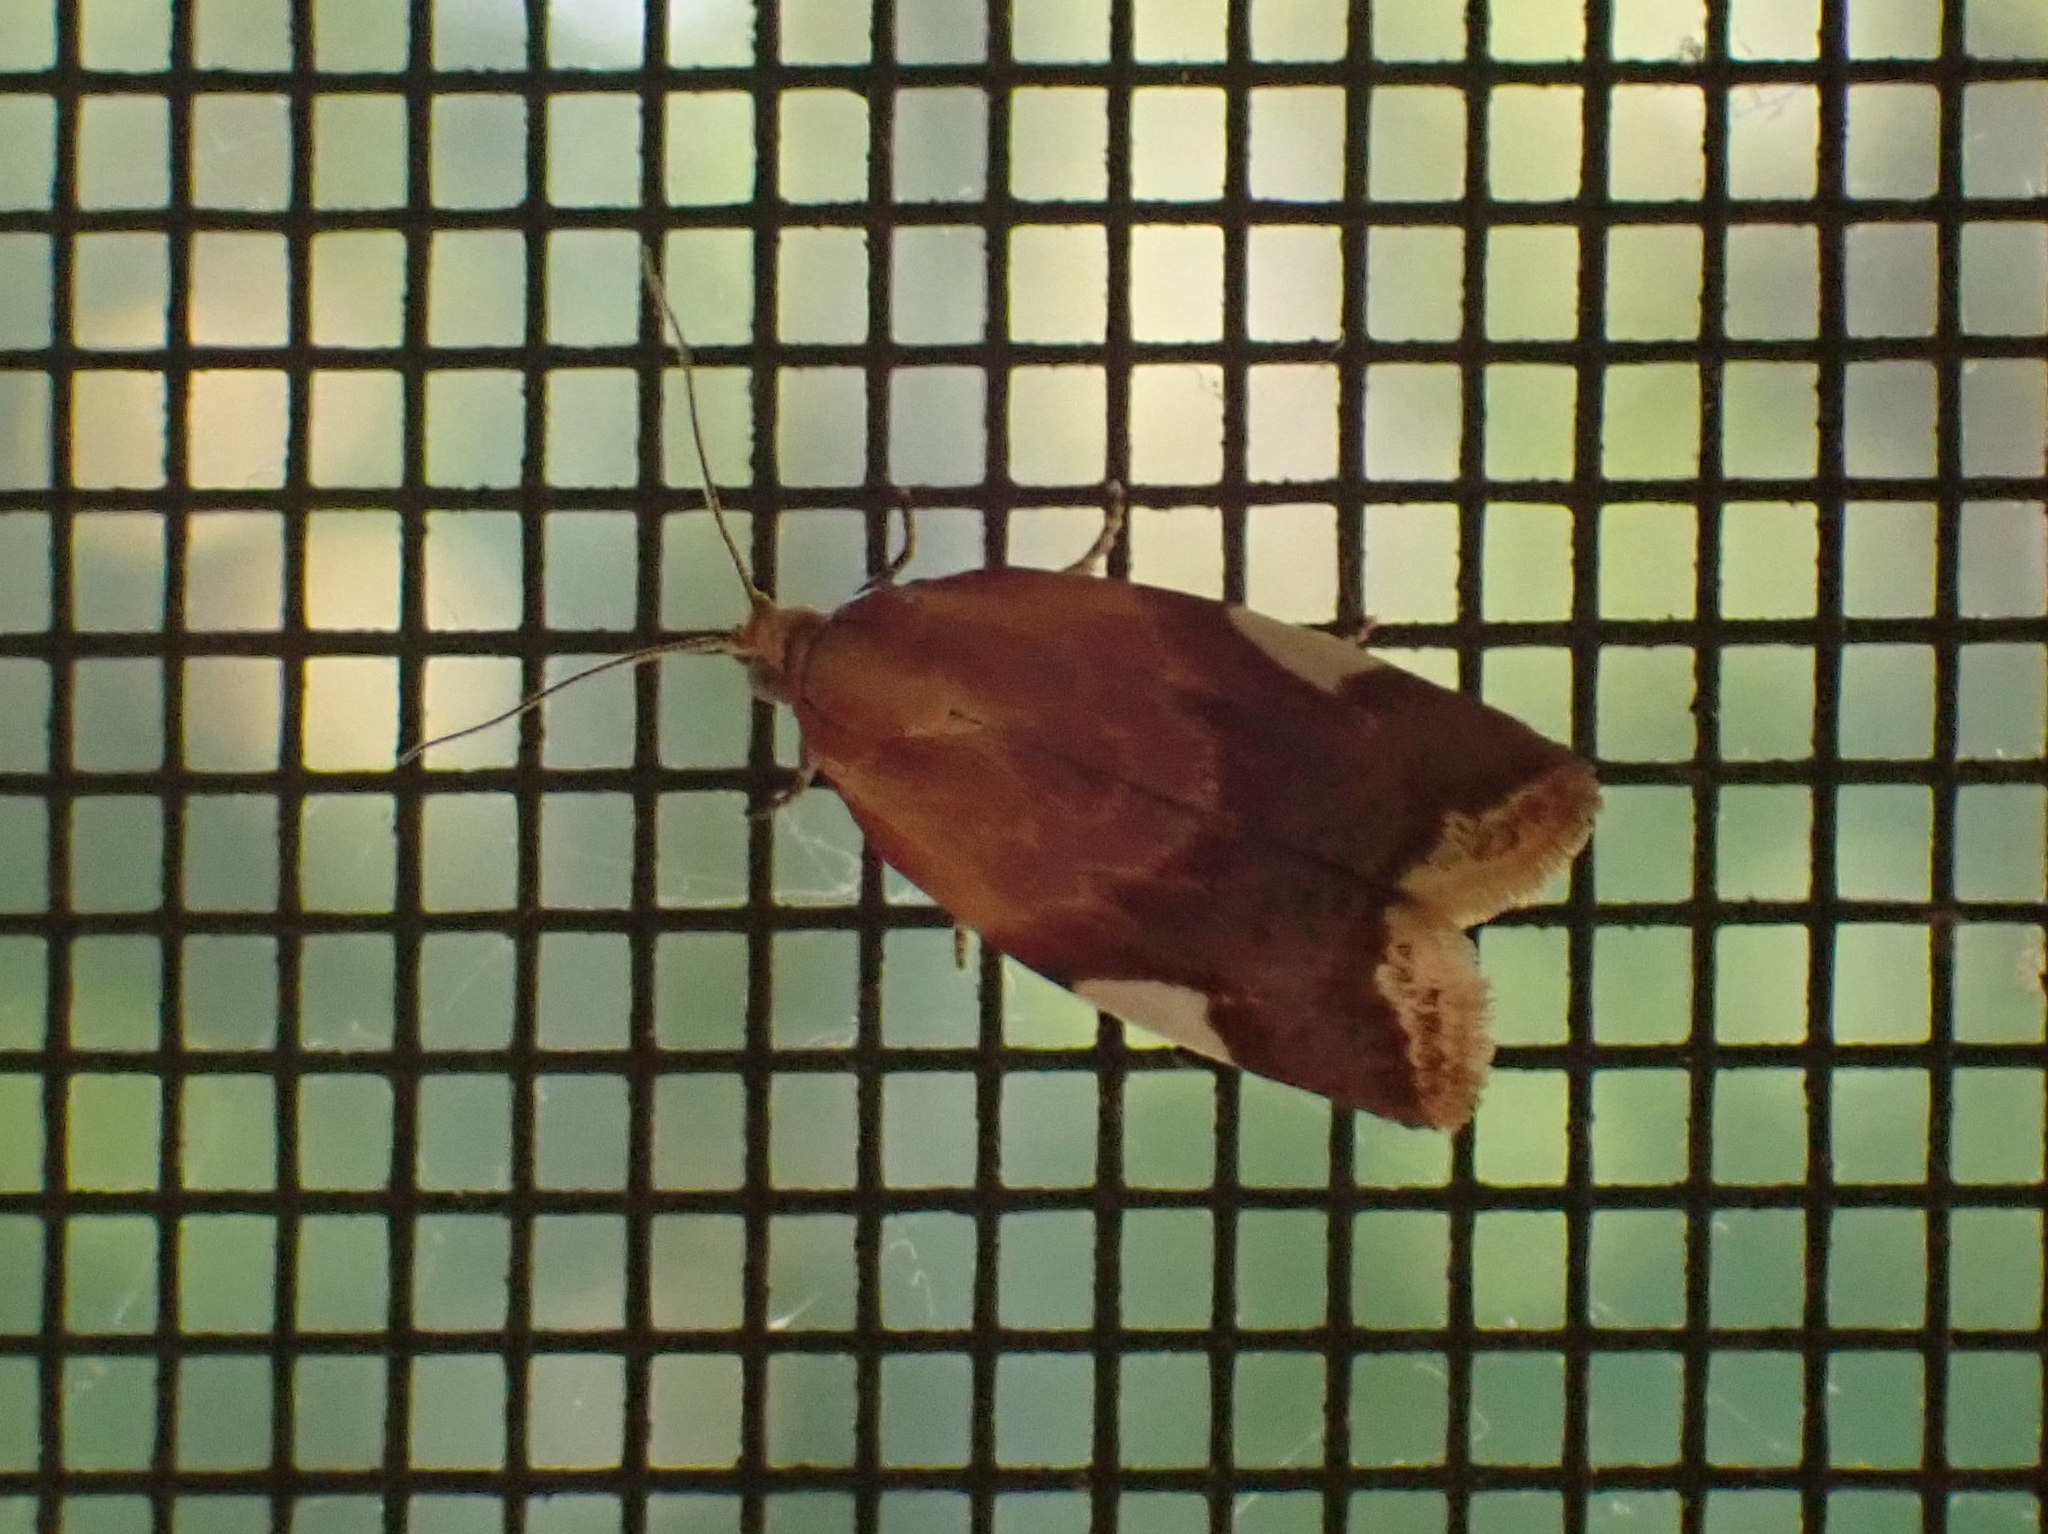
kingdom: Animalia
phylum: Arthropoda
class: Insecta
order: Lepidoptera
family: Tortricidae
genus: Clepsis
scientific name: Clepsis persicana
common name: White triangle tortrix
